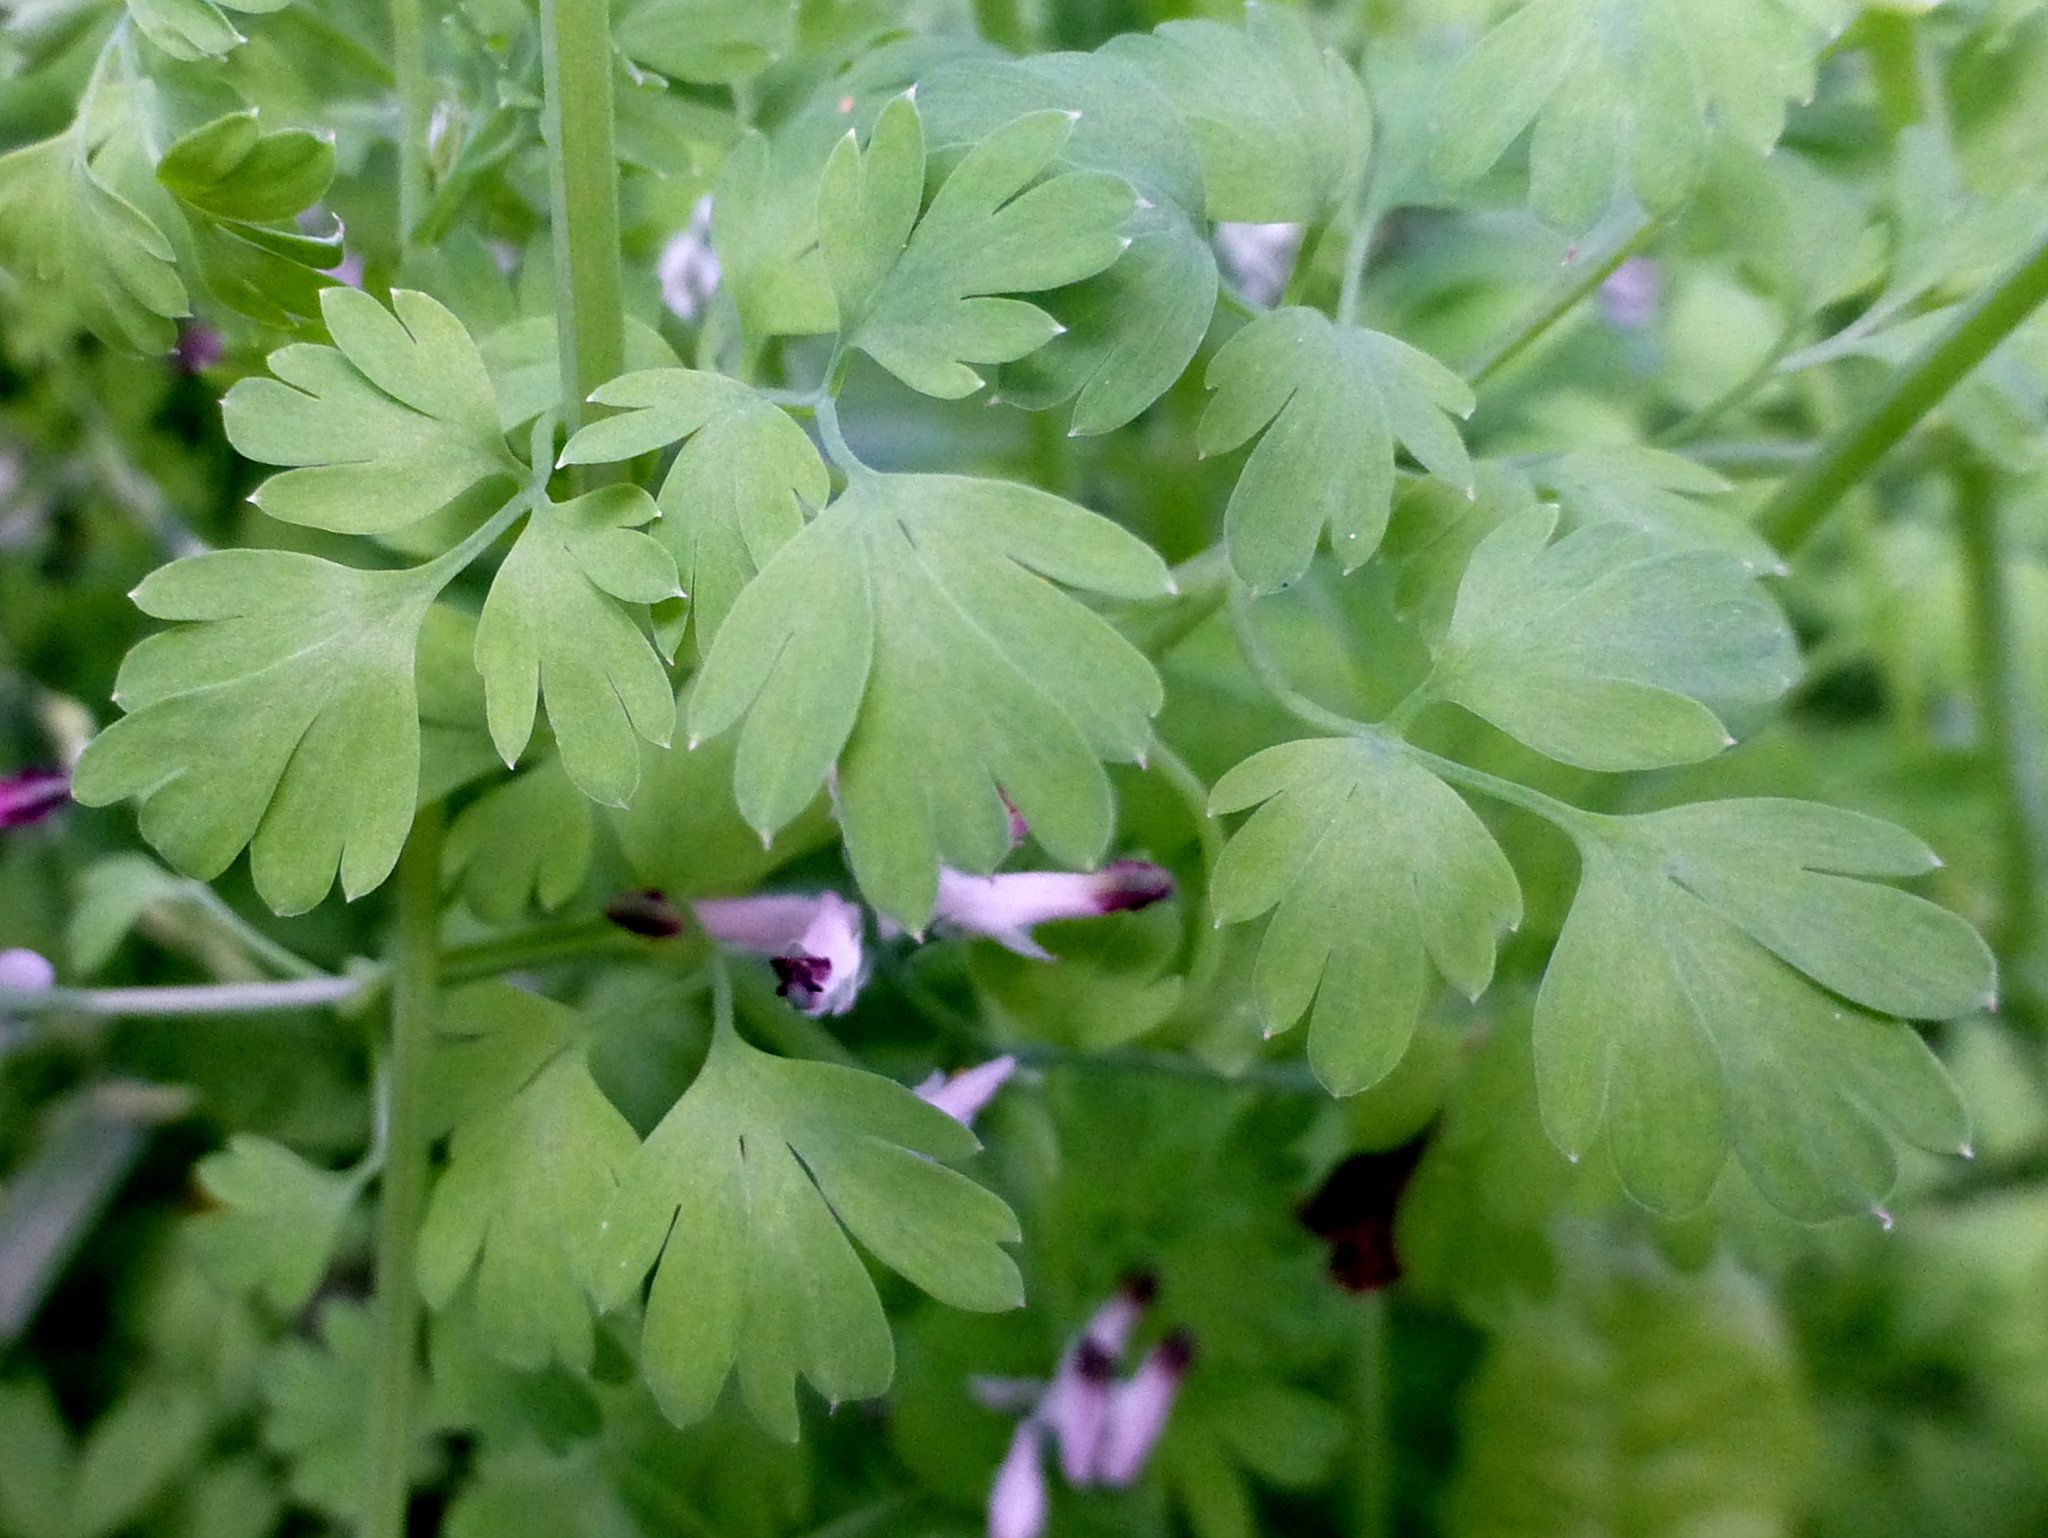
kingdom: Plantae
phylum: Tracheophyta
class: Magnoliopsida
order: Ranunculales
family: Papaveraceae
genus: Fumaria
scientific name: Fumaria muralis
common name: Common ramping-fumitory
